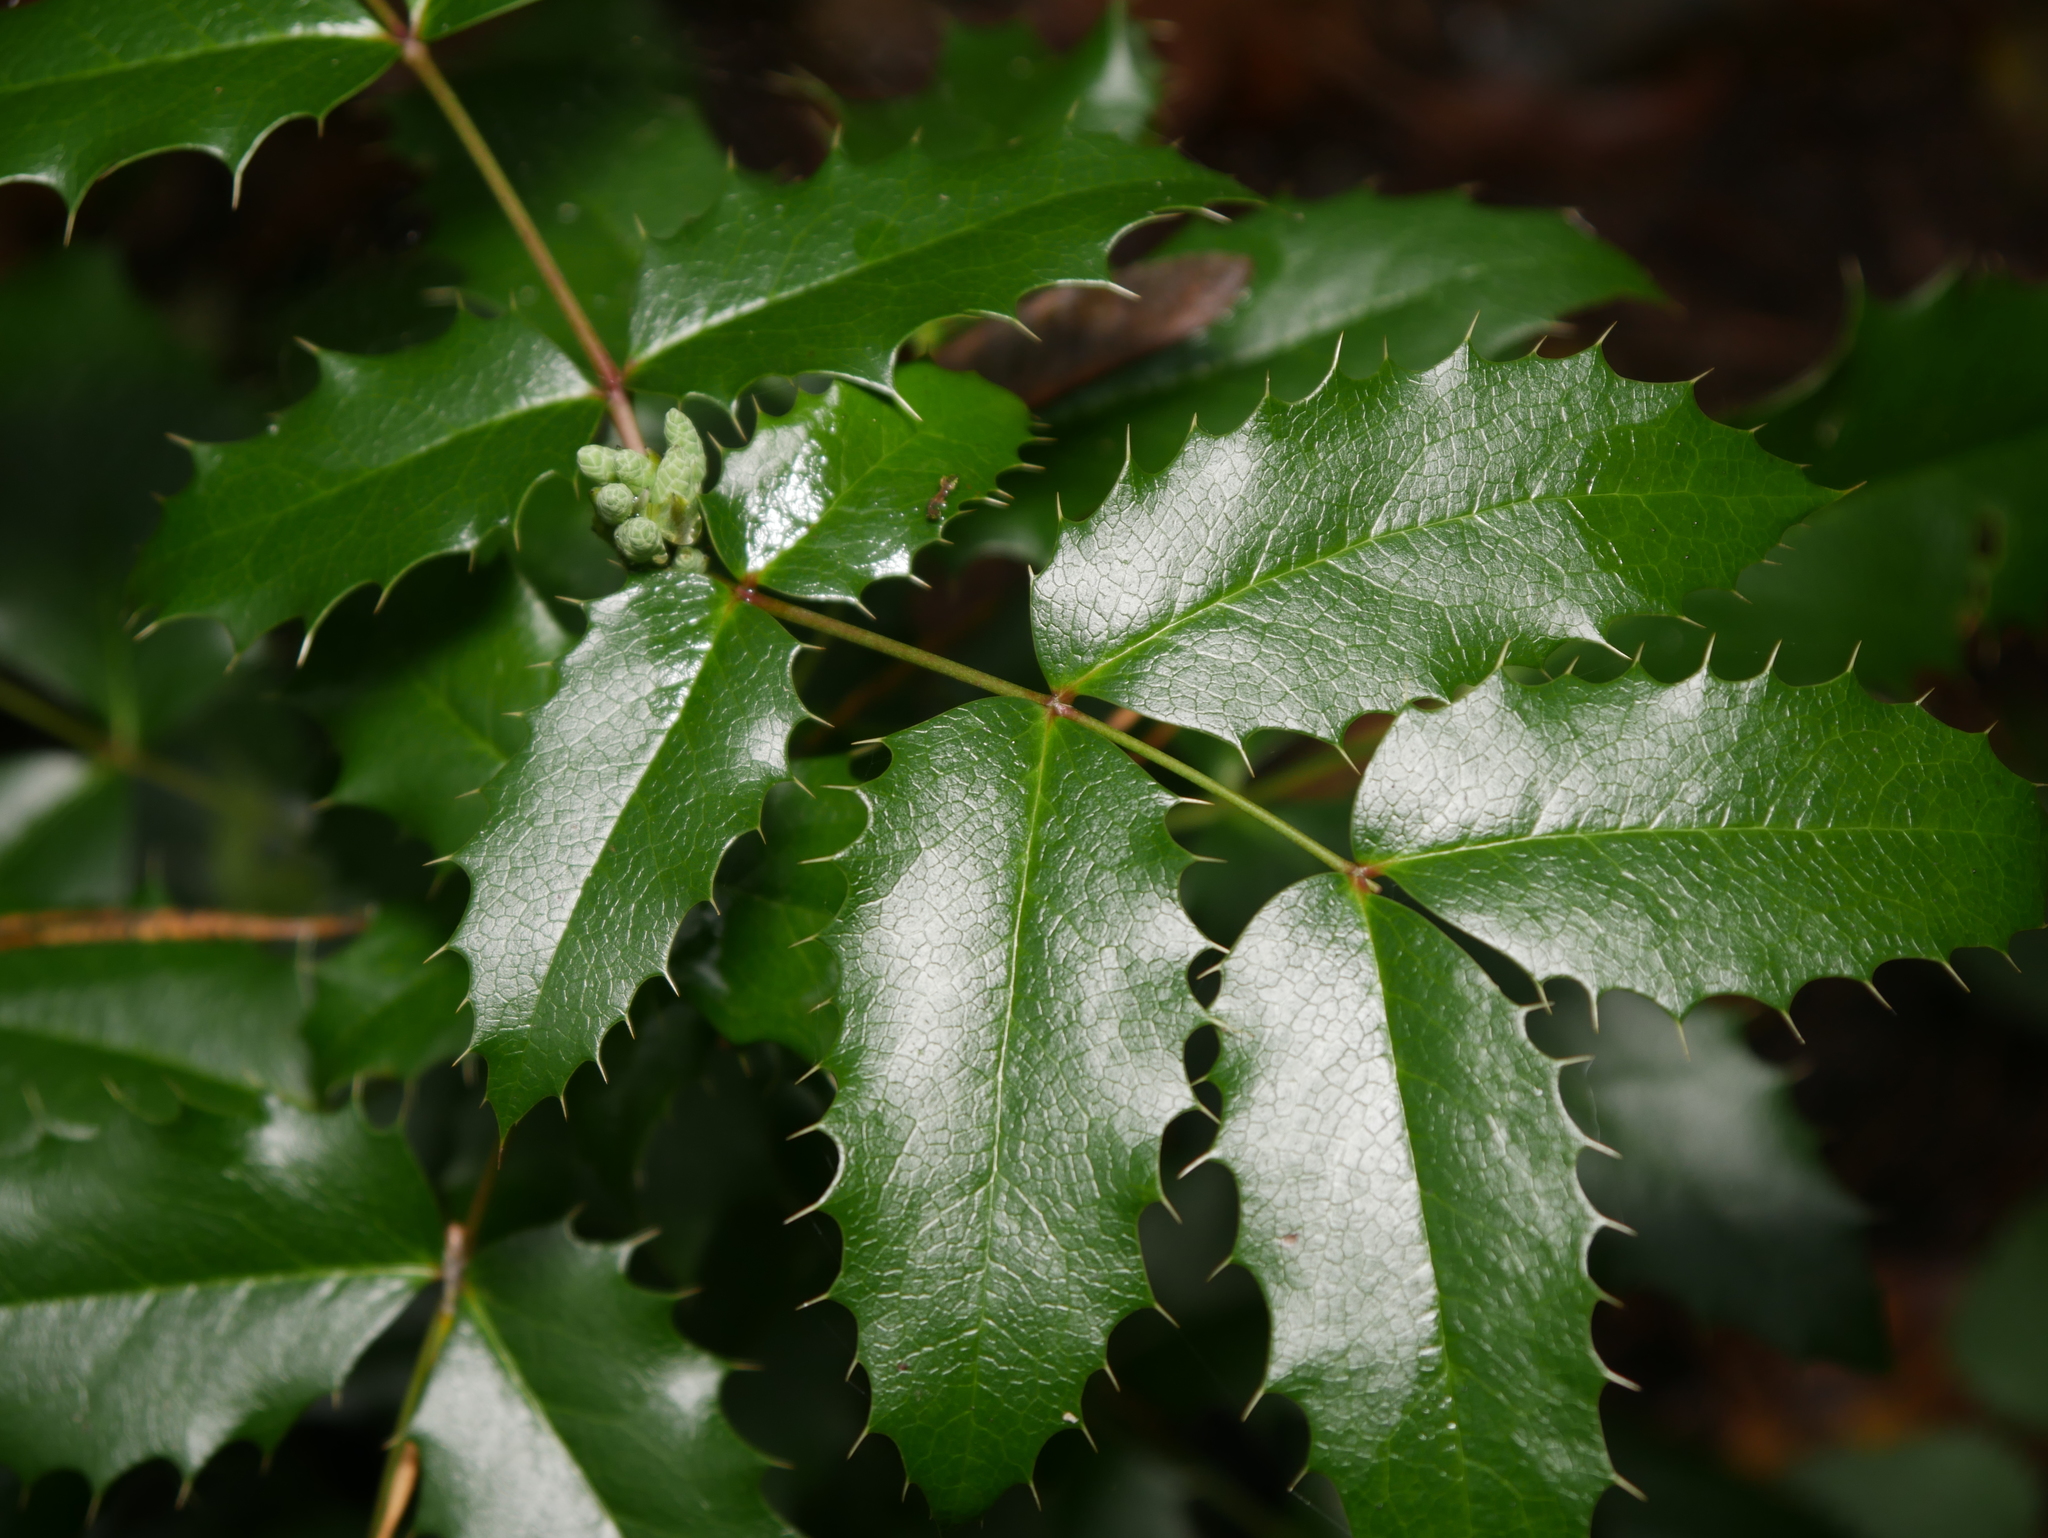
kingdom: Plantae
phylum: Tracheophyta
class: Magnoliopsida
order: Ranunculales
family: Berberidaceae
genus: Mahonia
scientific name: Mahonia aquifolium
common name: Oregon-grape
